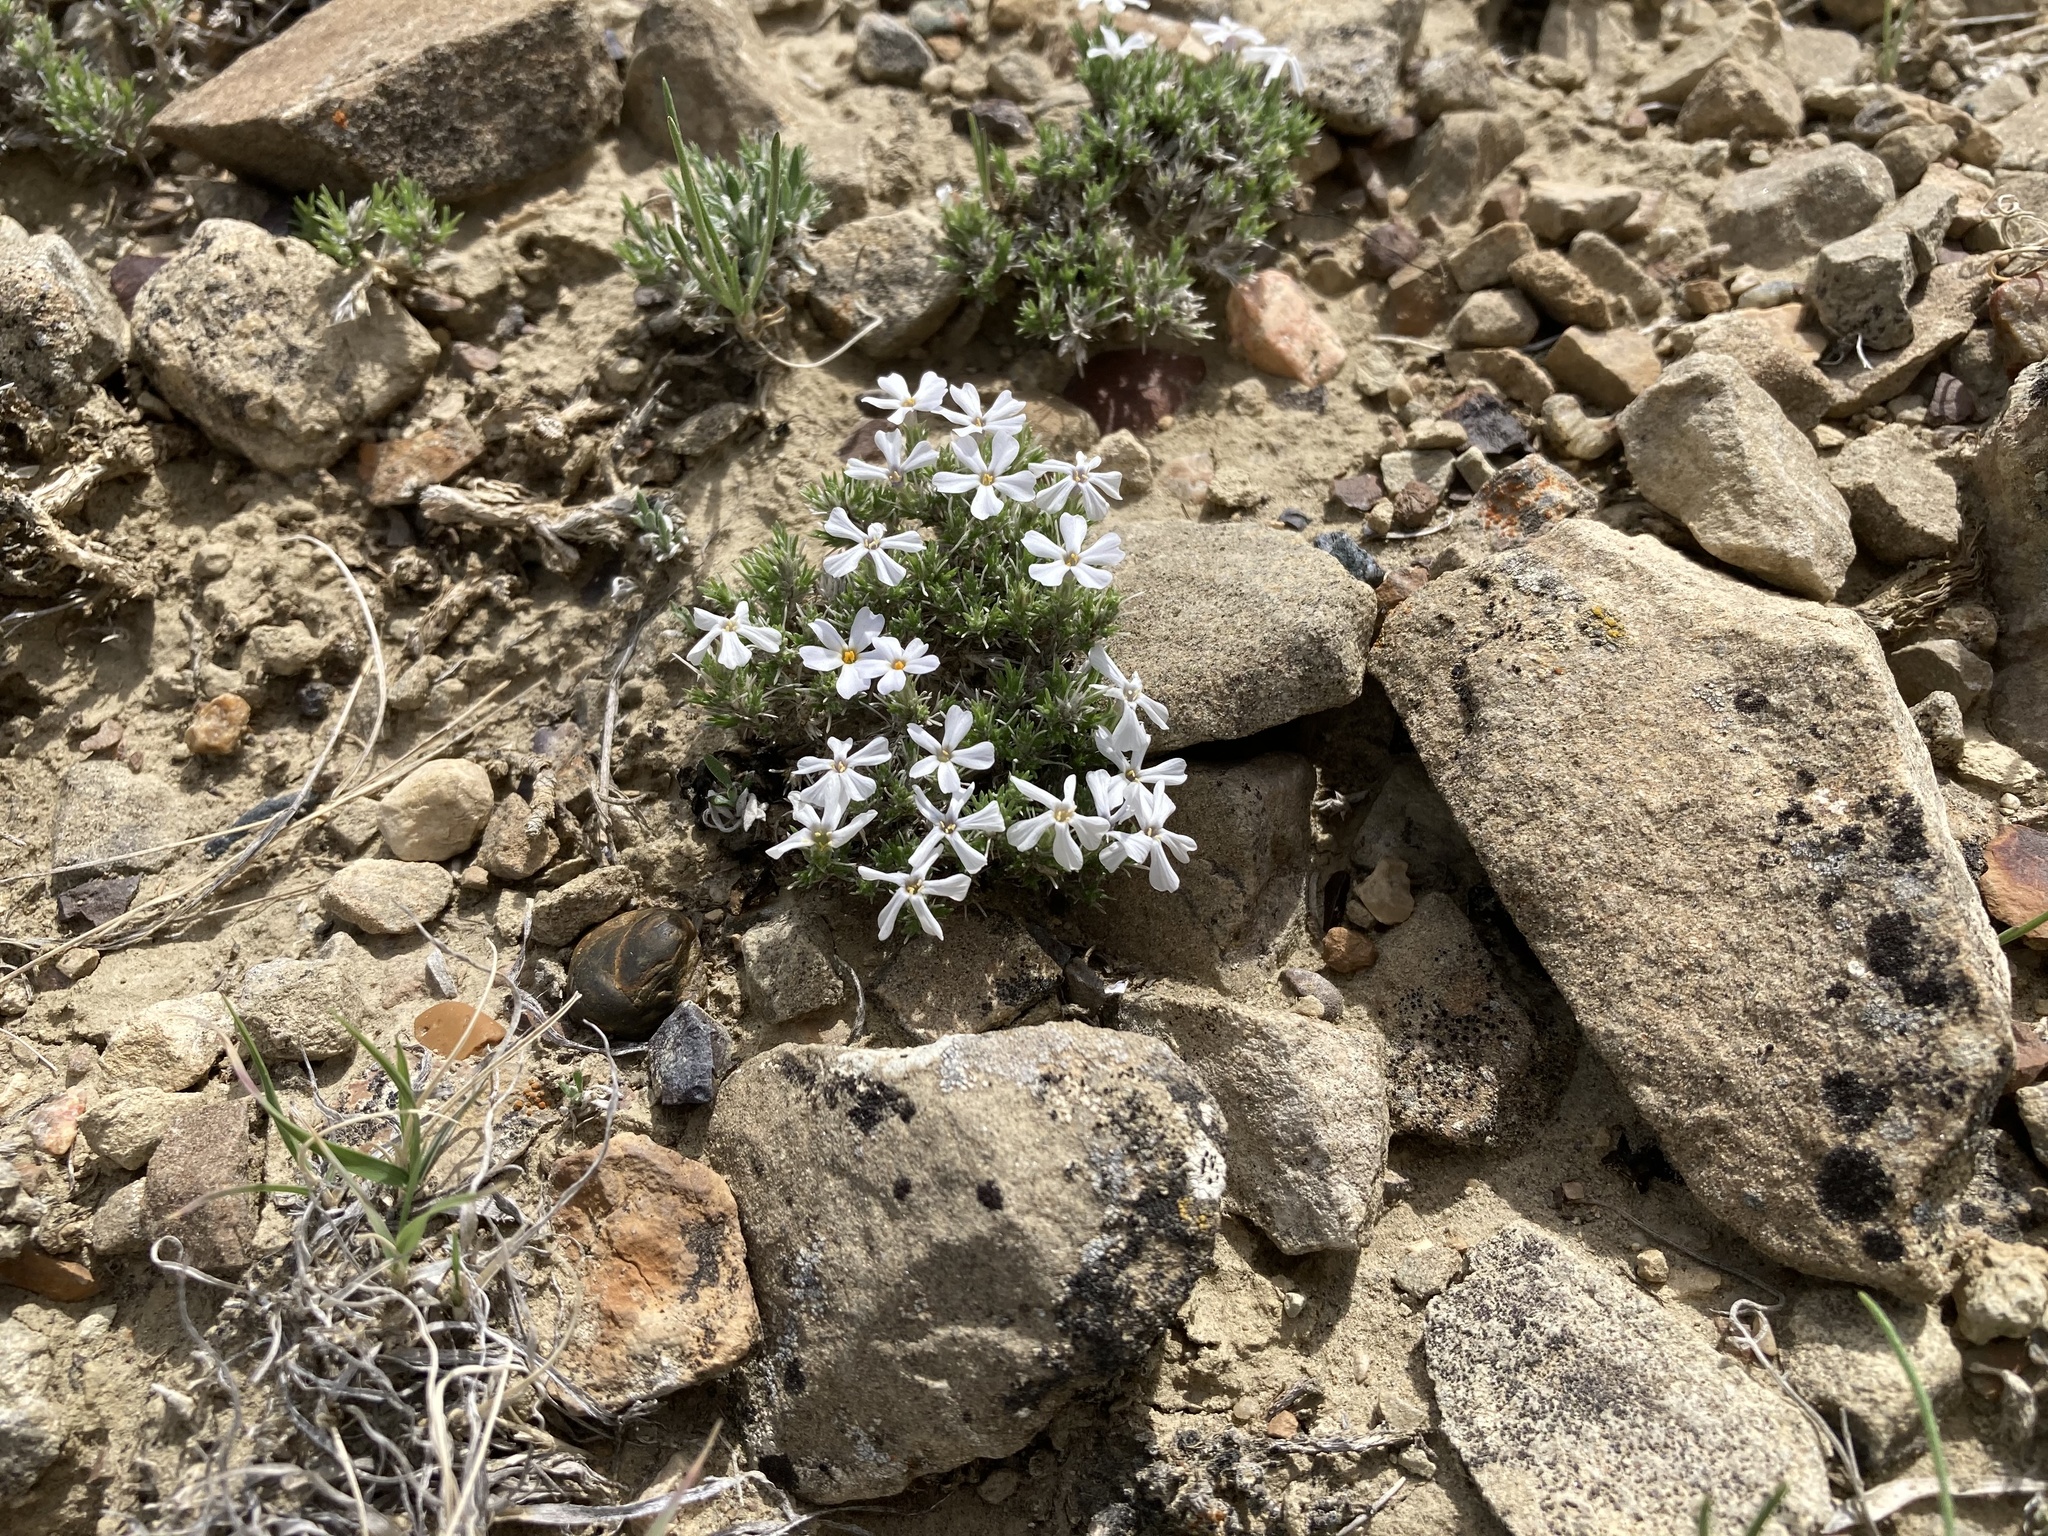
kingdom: Plantae
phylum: Tracheophyta
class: Magnoliopsida
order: Ericales
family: Polemoniaceae
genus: Phlox
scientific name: Phlox hoodii
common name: Moss phlox
